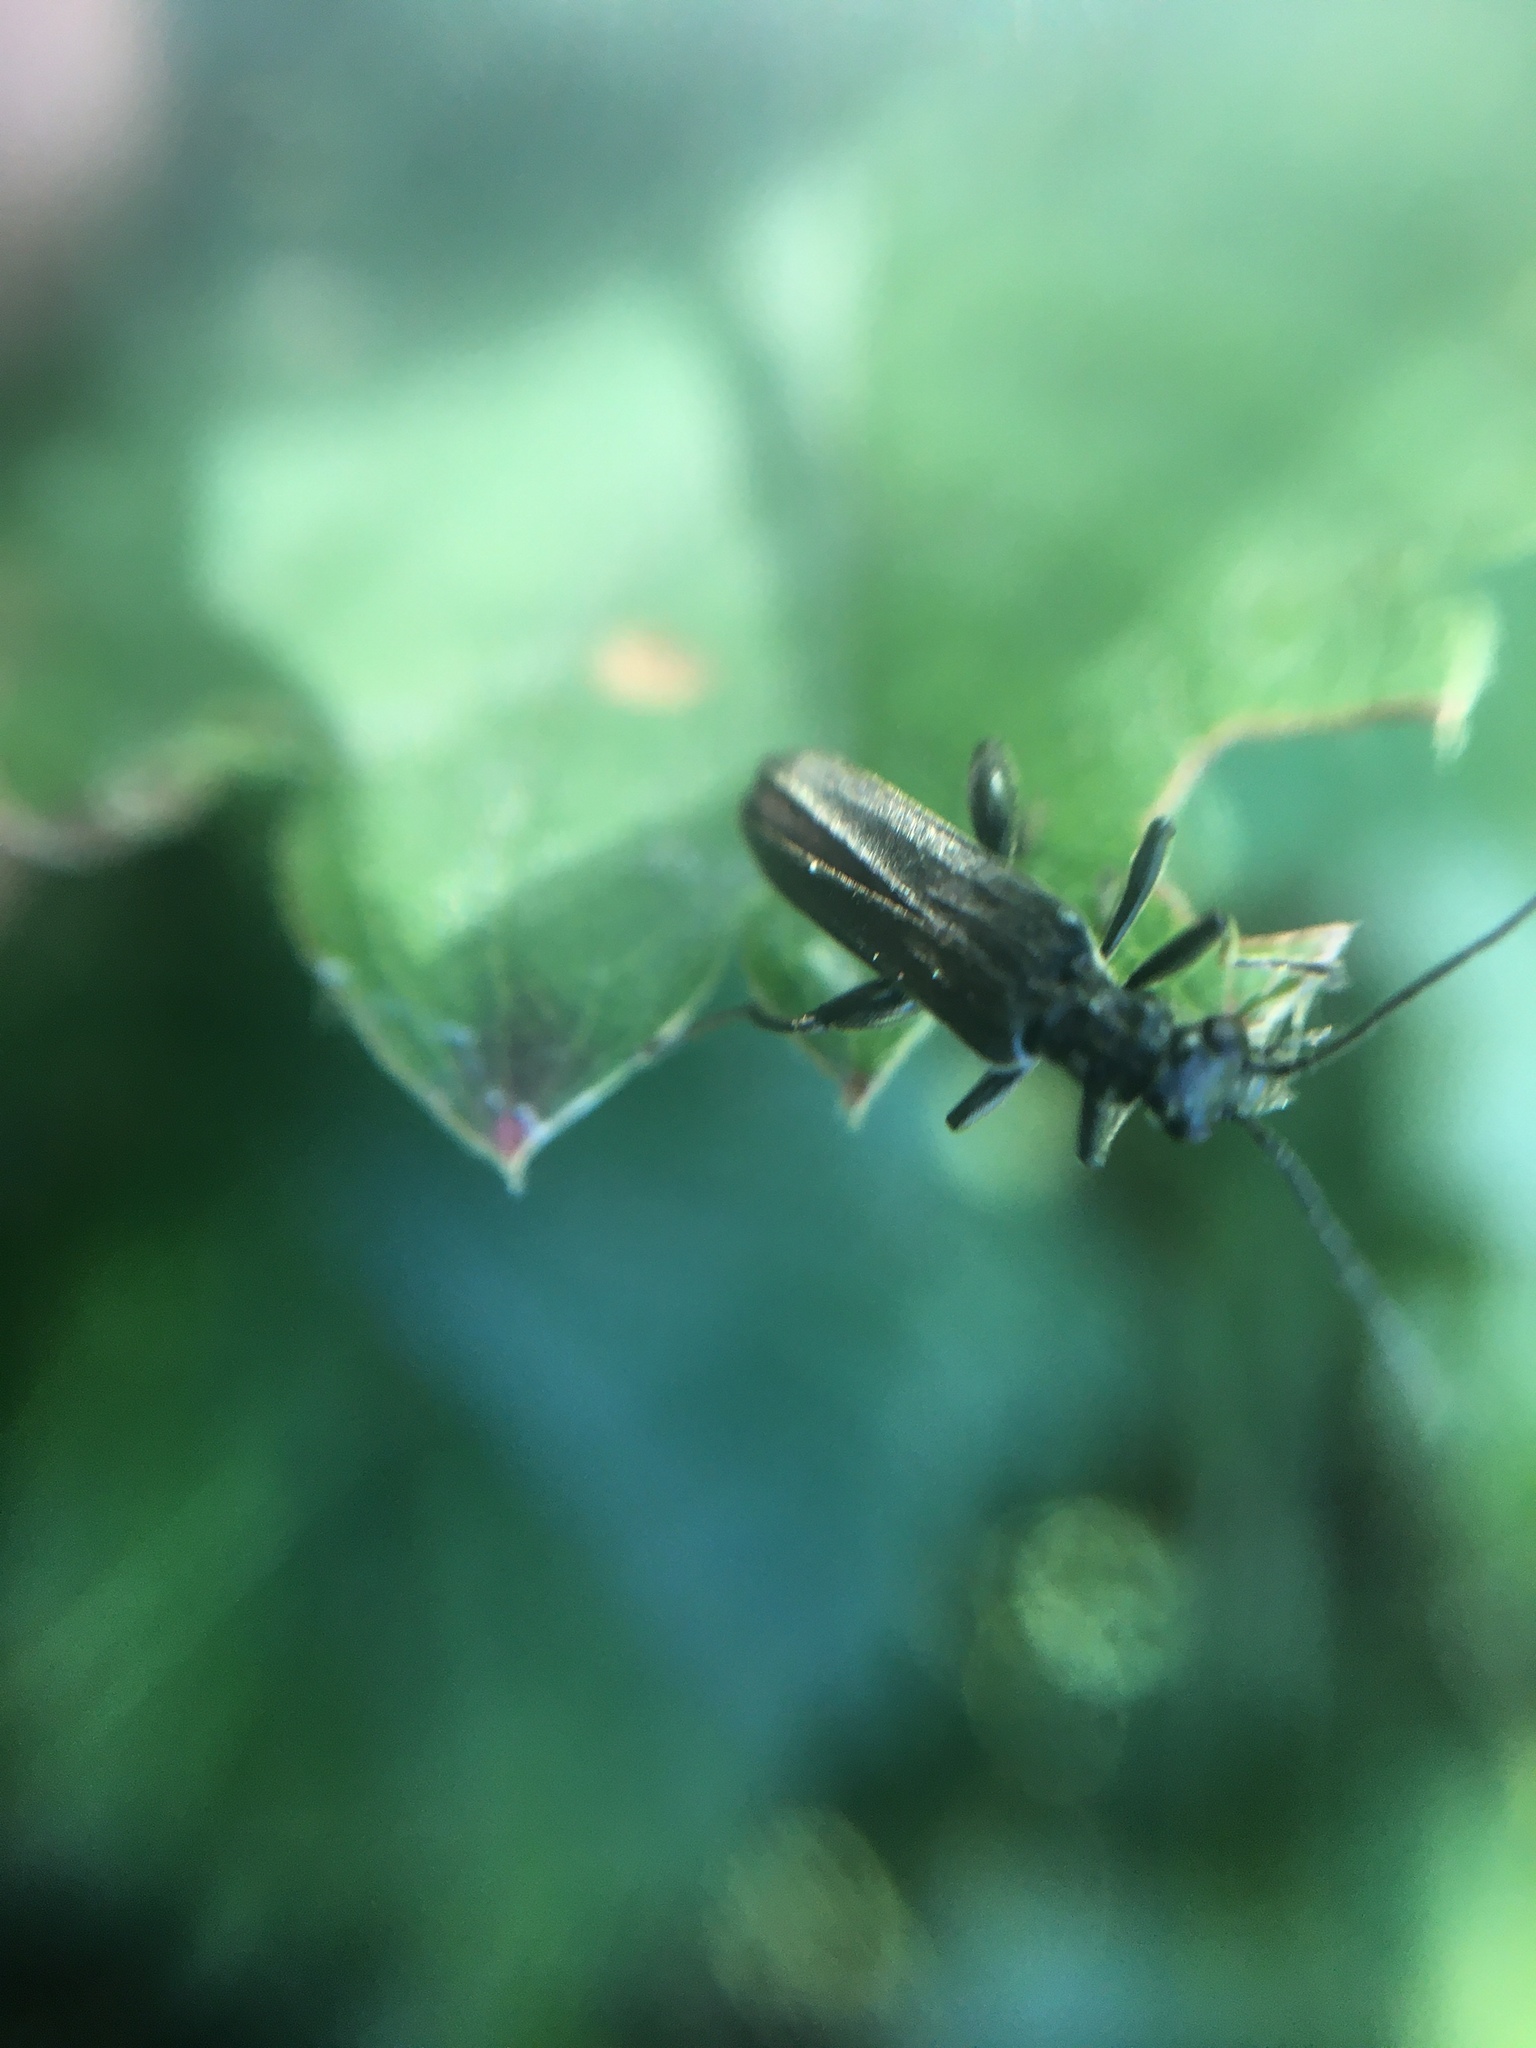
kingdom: Animalia
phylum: Arthropoda
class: Insecta
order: Coleoptera
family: Oedemeridae
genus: Oedemera
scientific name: Oedemera virescens
